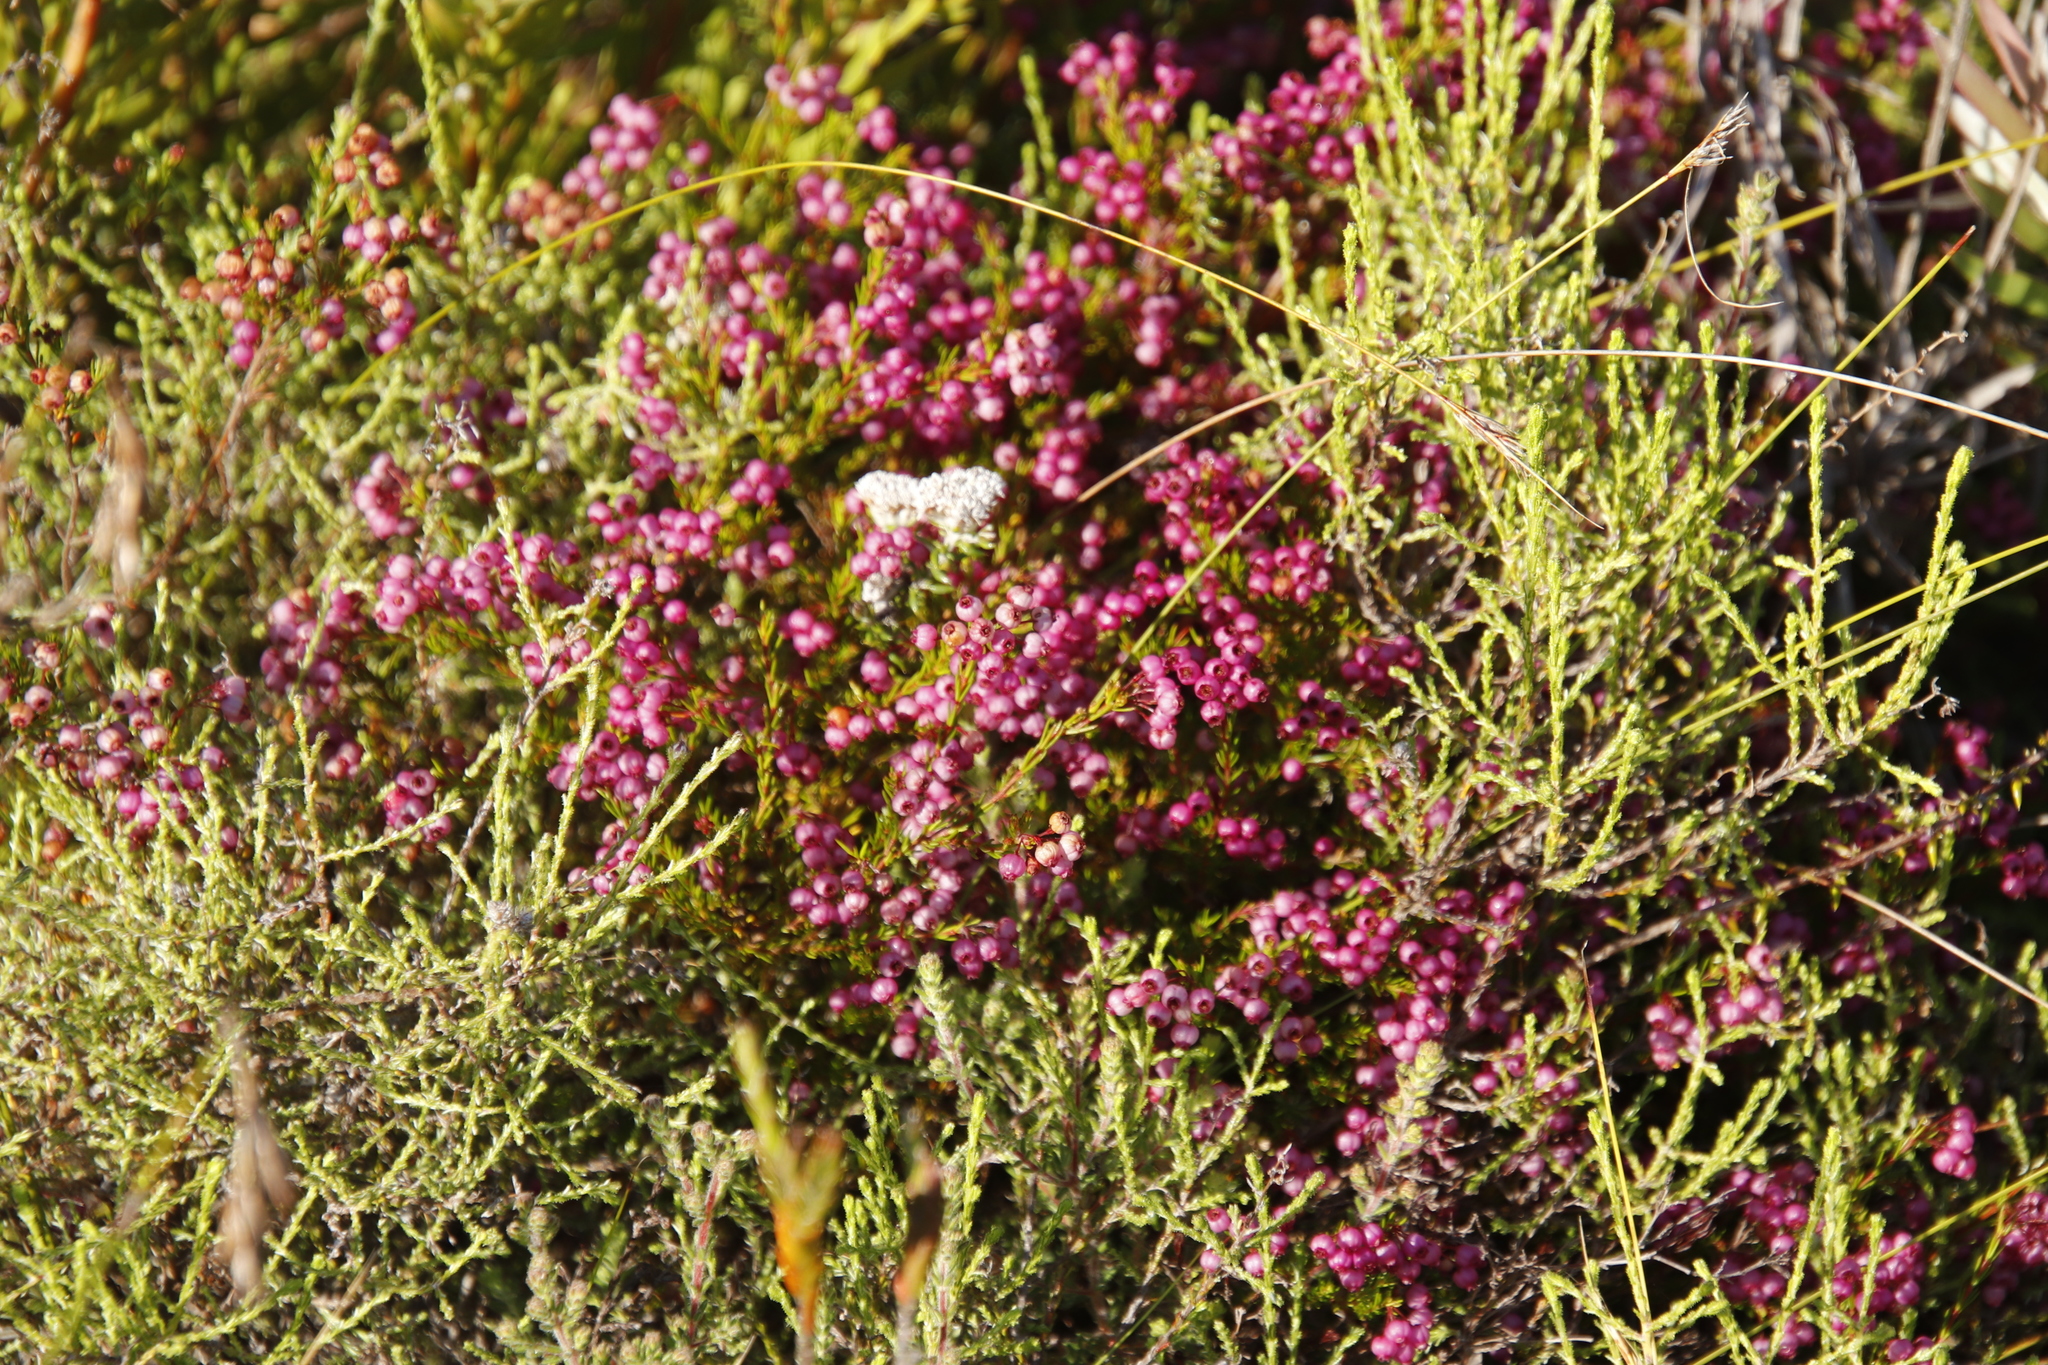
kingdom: Plantae
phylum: Tracheophyta
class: Magnoliopsida
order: Ericales
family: Ericaceae
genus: Erica
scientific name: Erica multumbellifera
